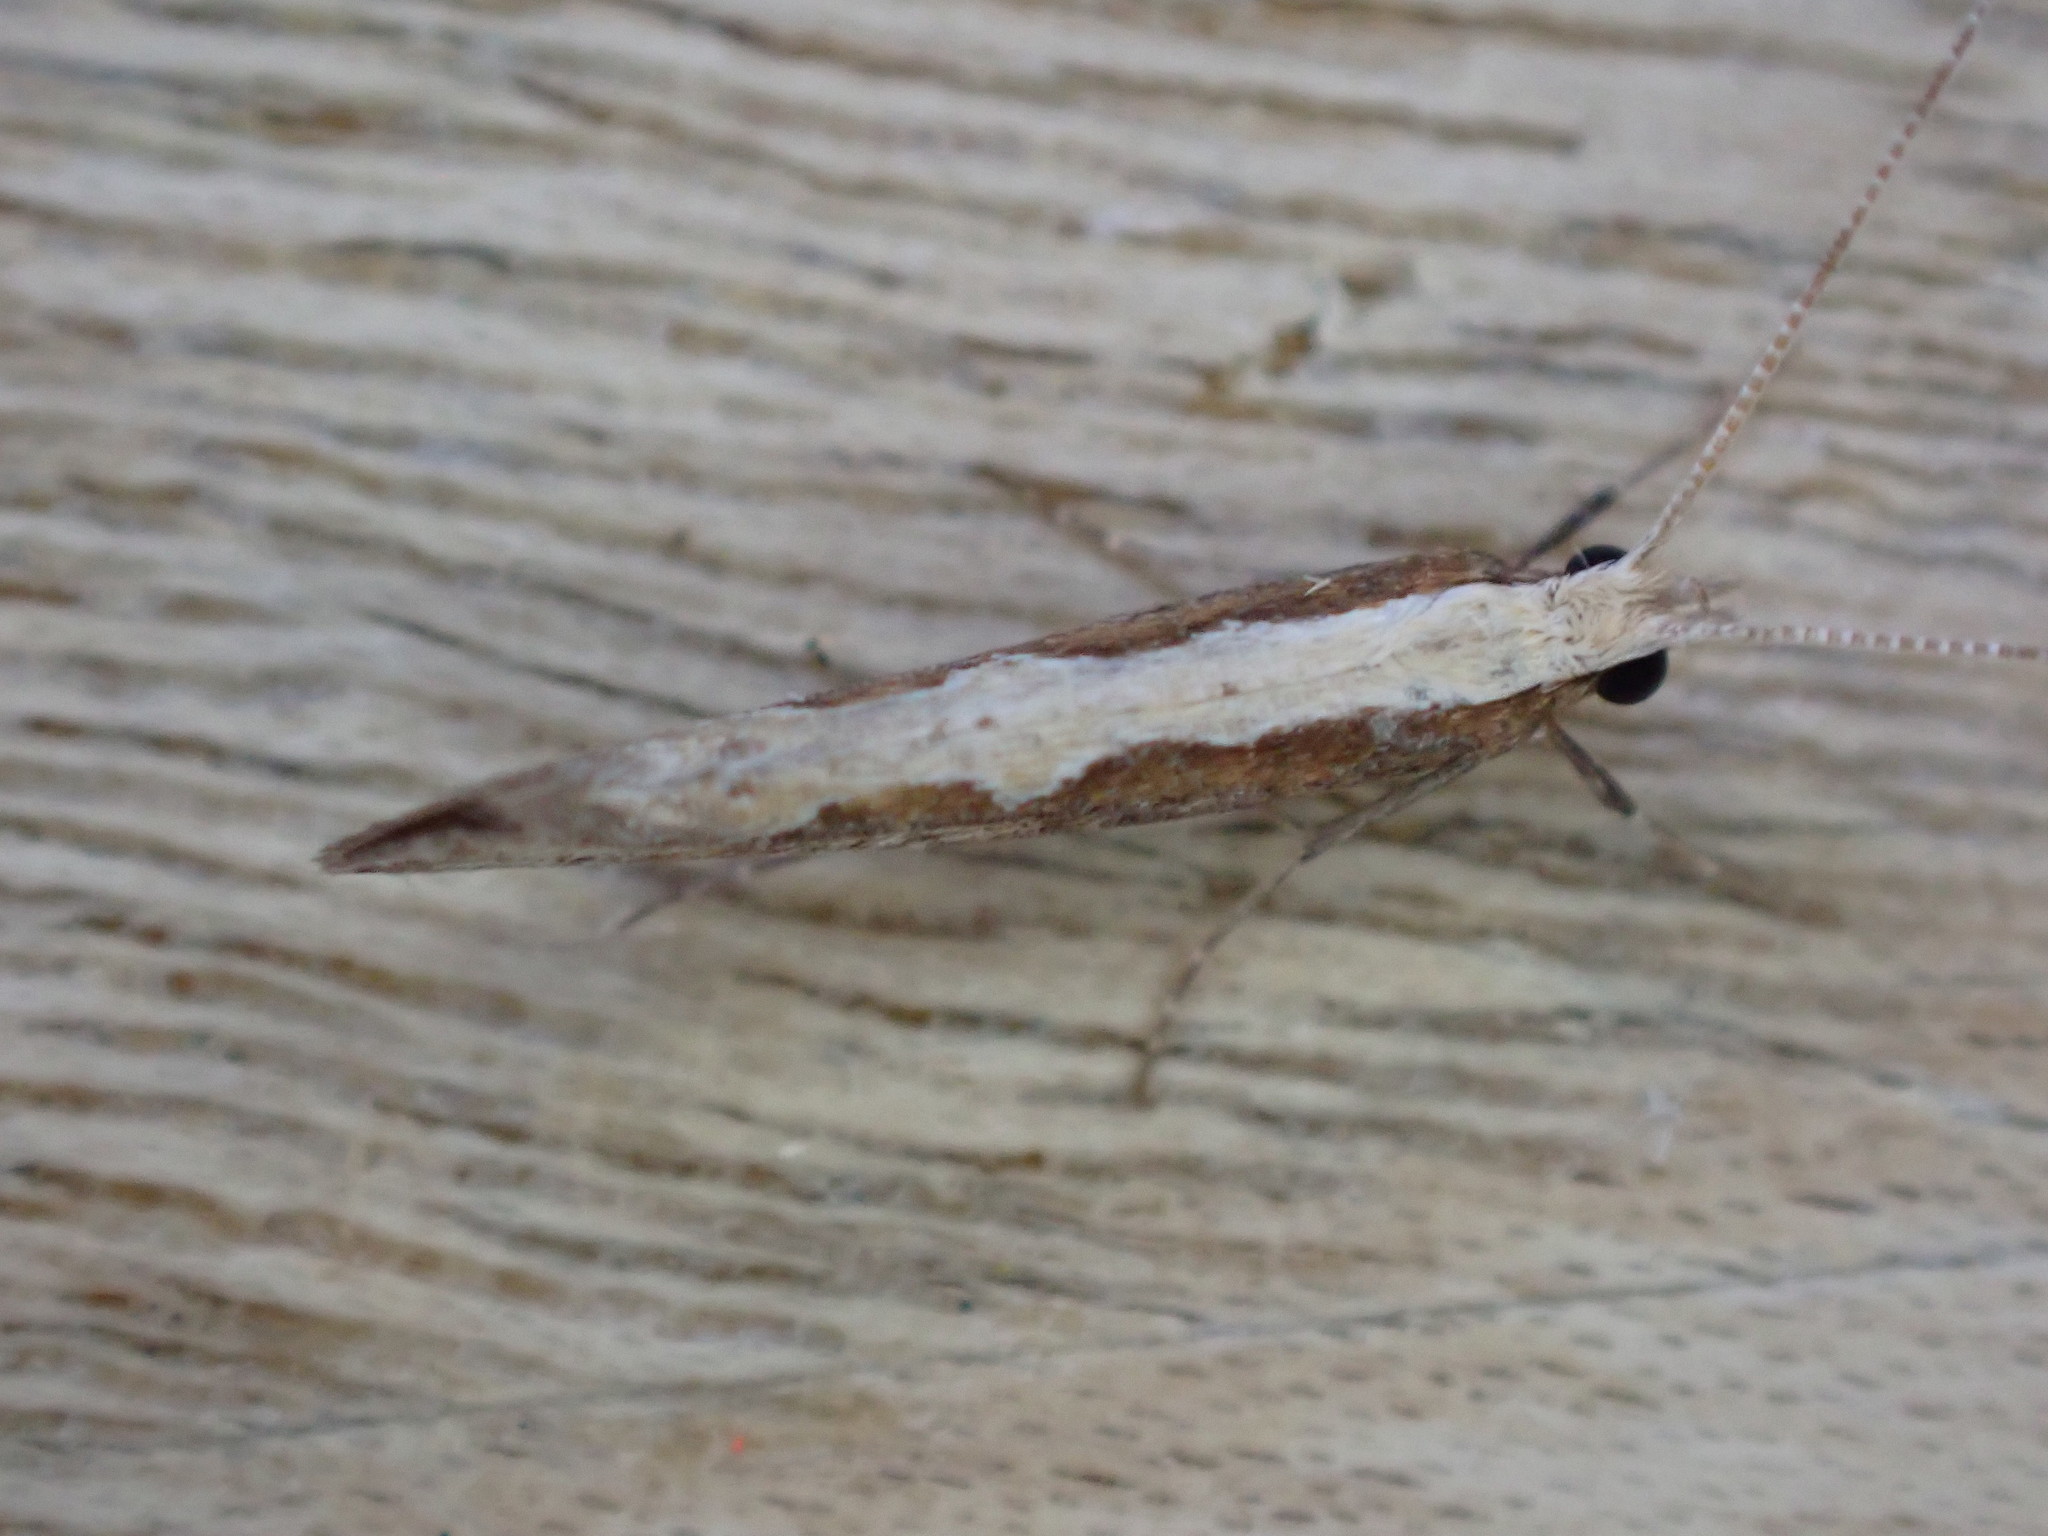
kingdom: Animalia
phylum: Arthropoda
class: Insecta
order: Lepidoptera
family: Plutellidae
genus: Plutella
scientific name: Plutella xylostella
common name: Diamond-back moth
